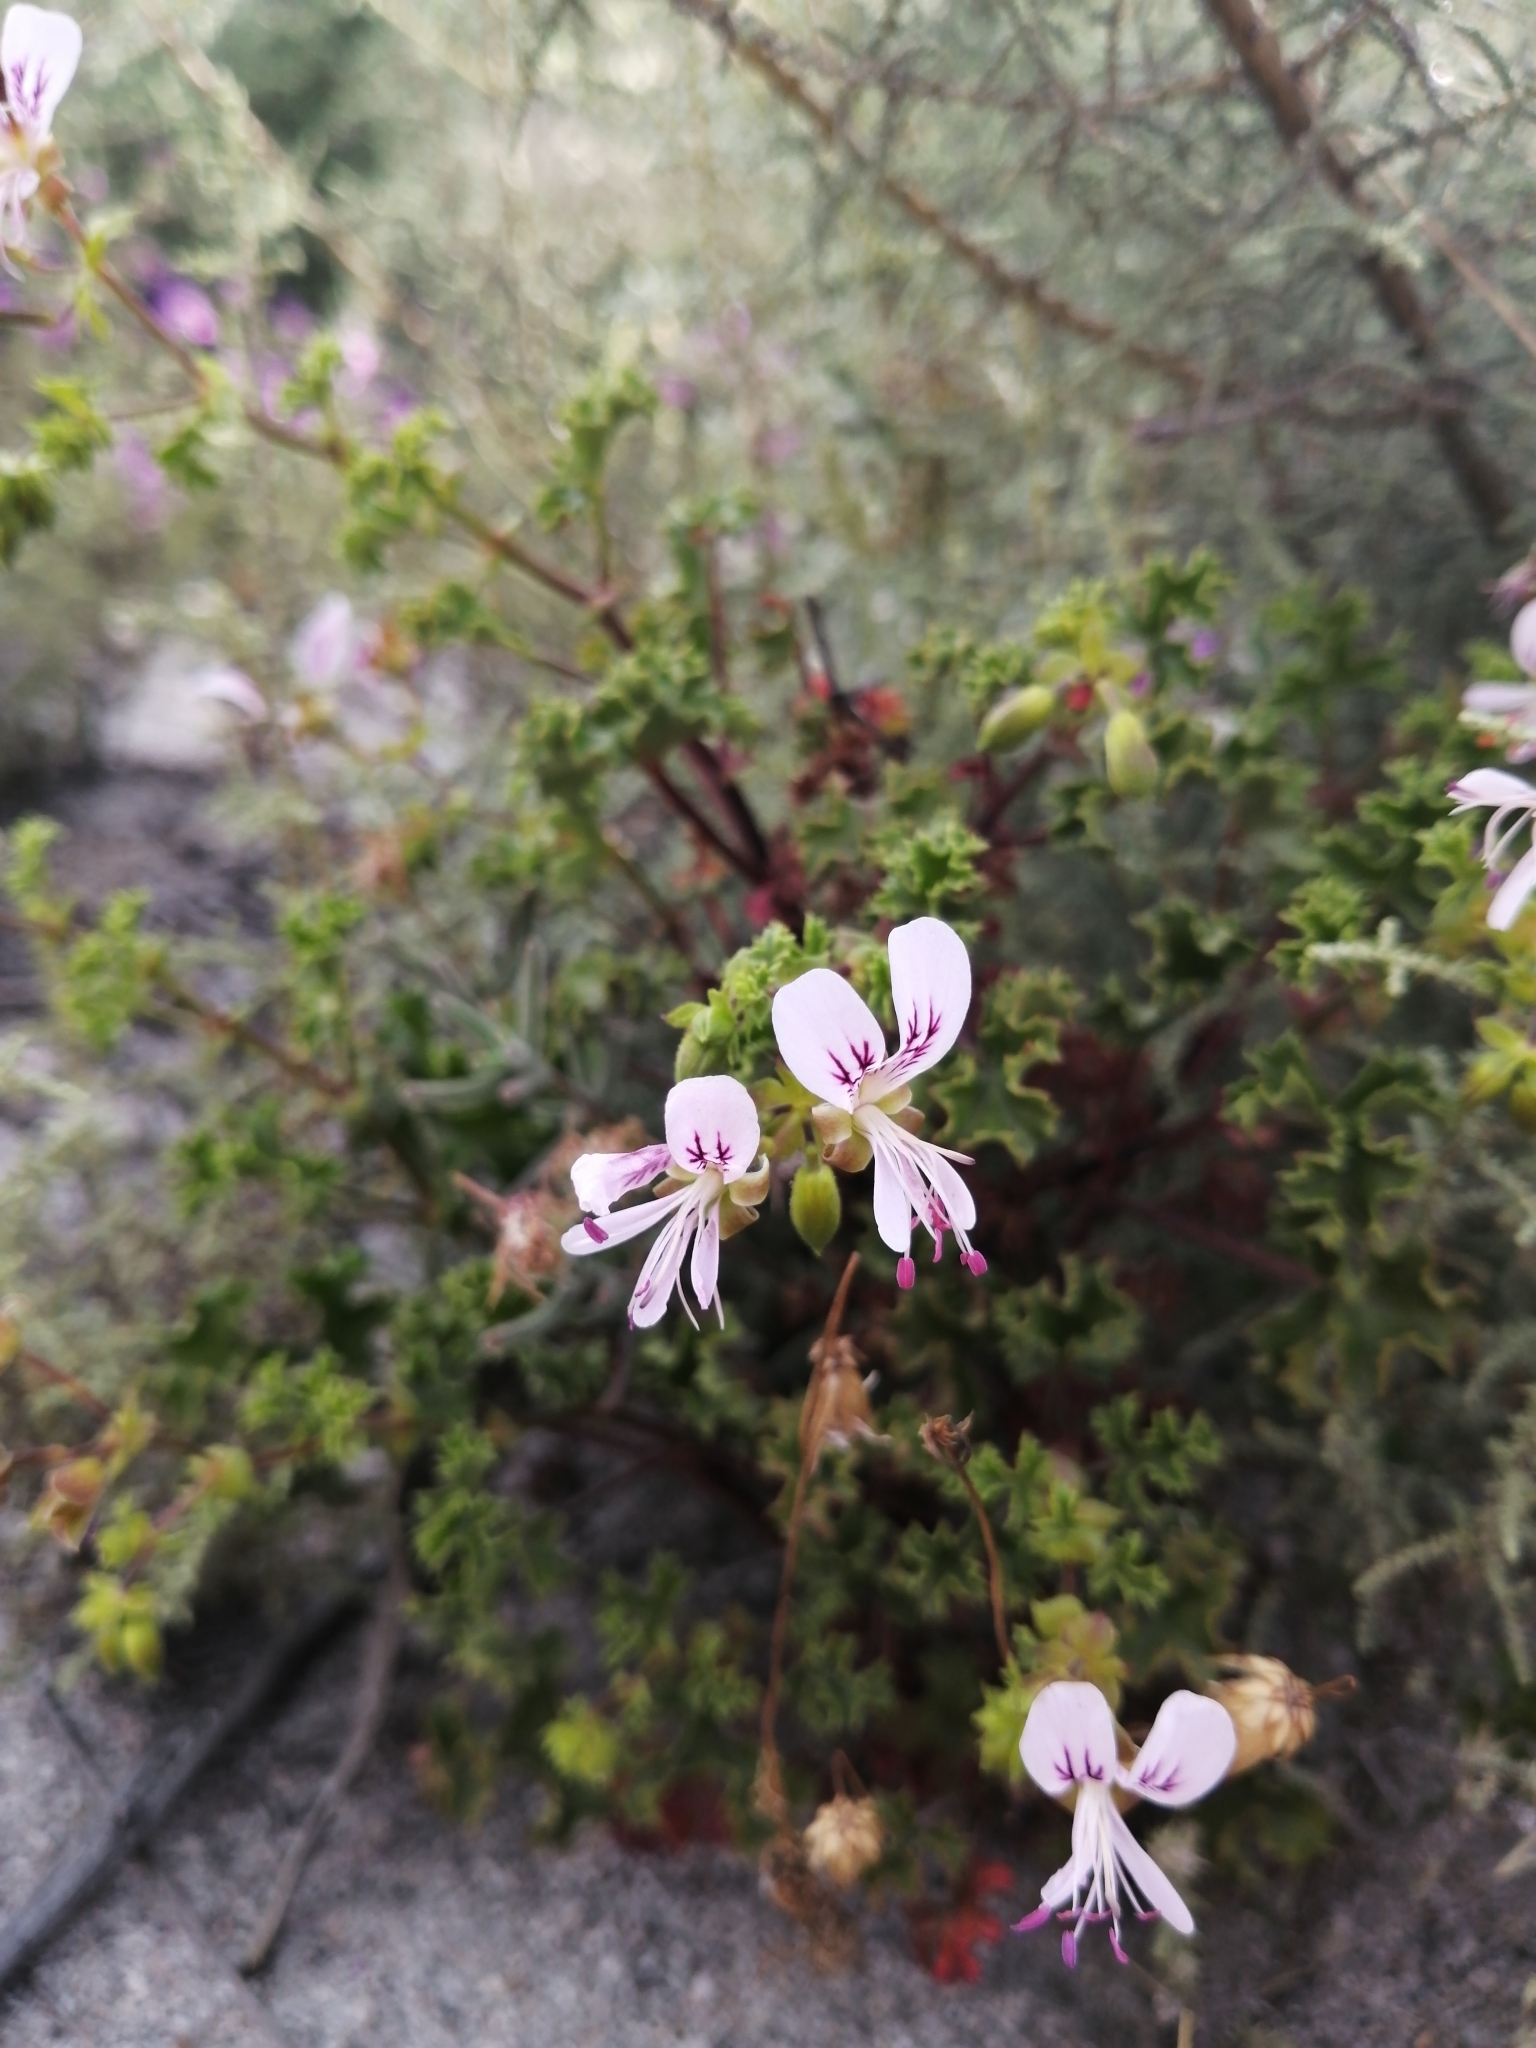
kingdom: Plantae
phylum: Tracheophyta
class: Magnoliopsida
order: Geraniales
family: Geraniaceae
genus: Pelargonium
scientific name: Pelargonium englerianum
